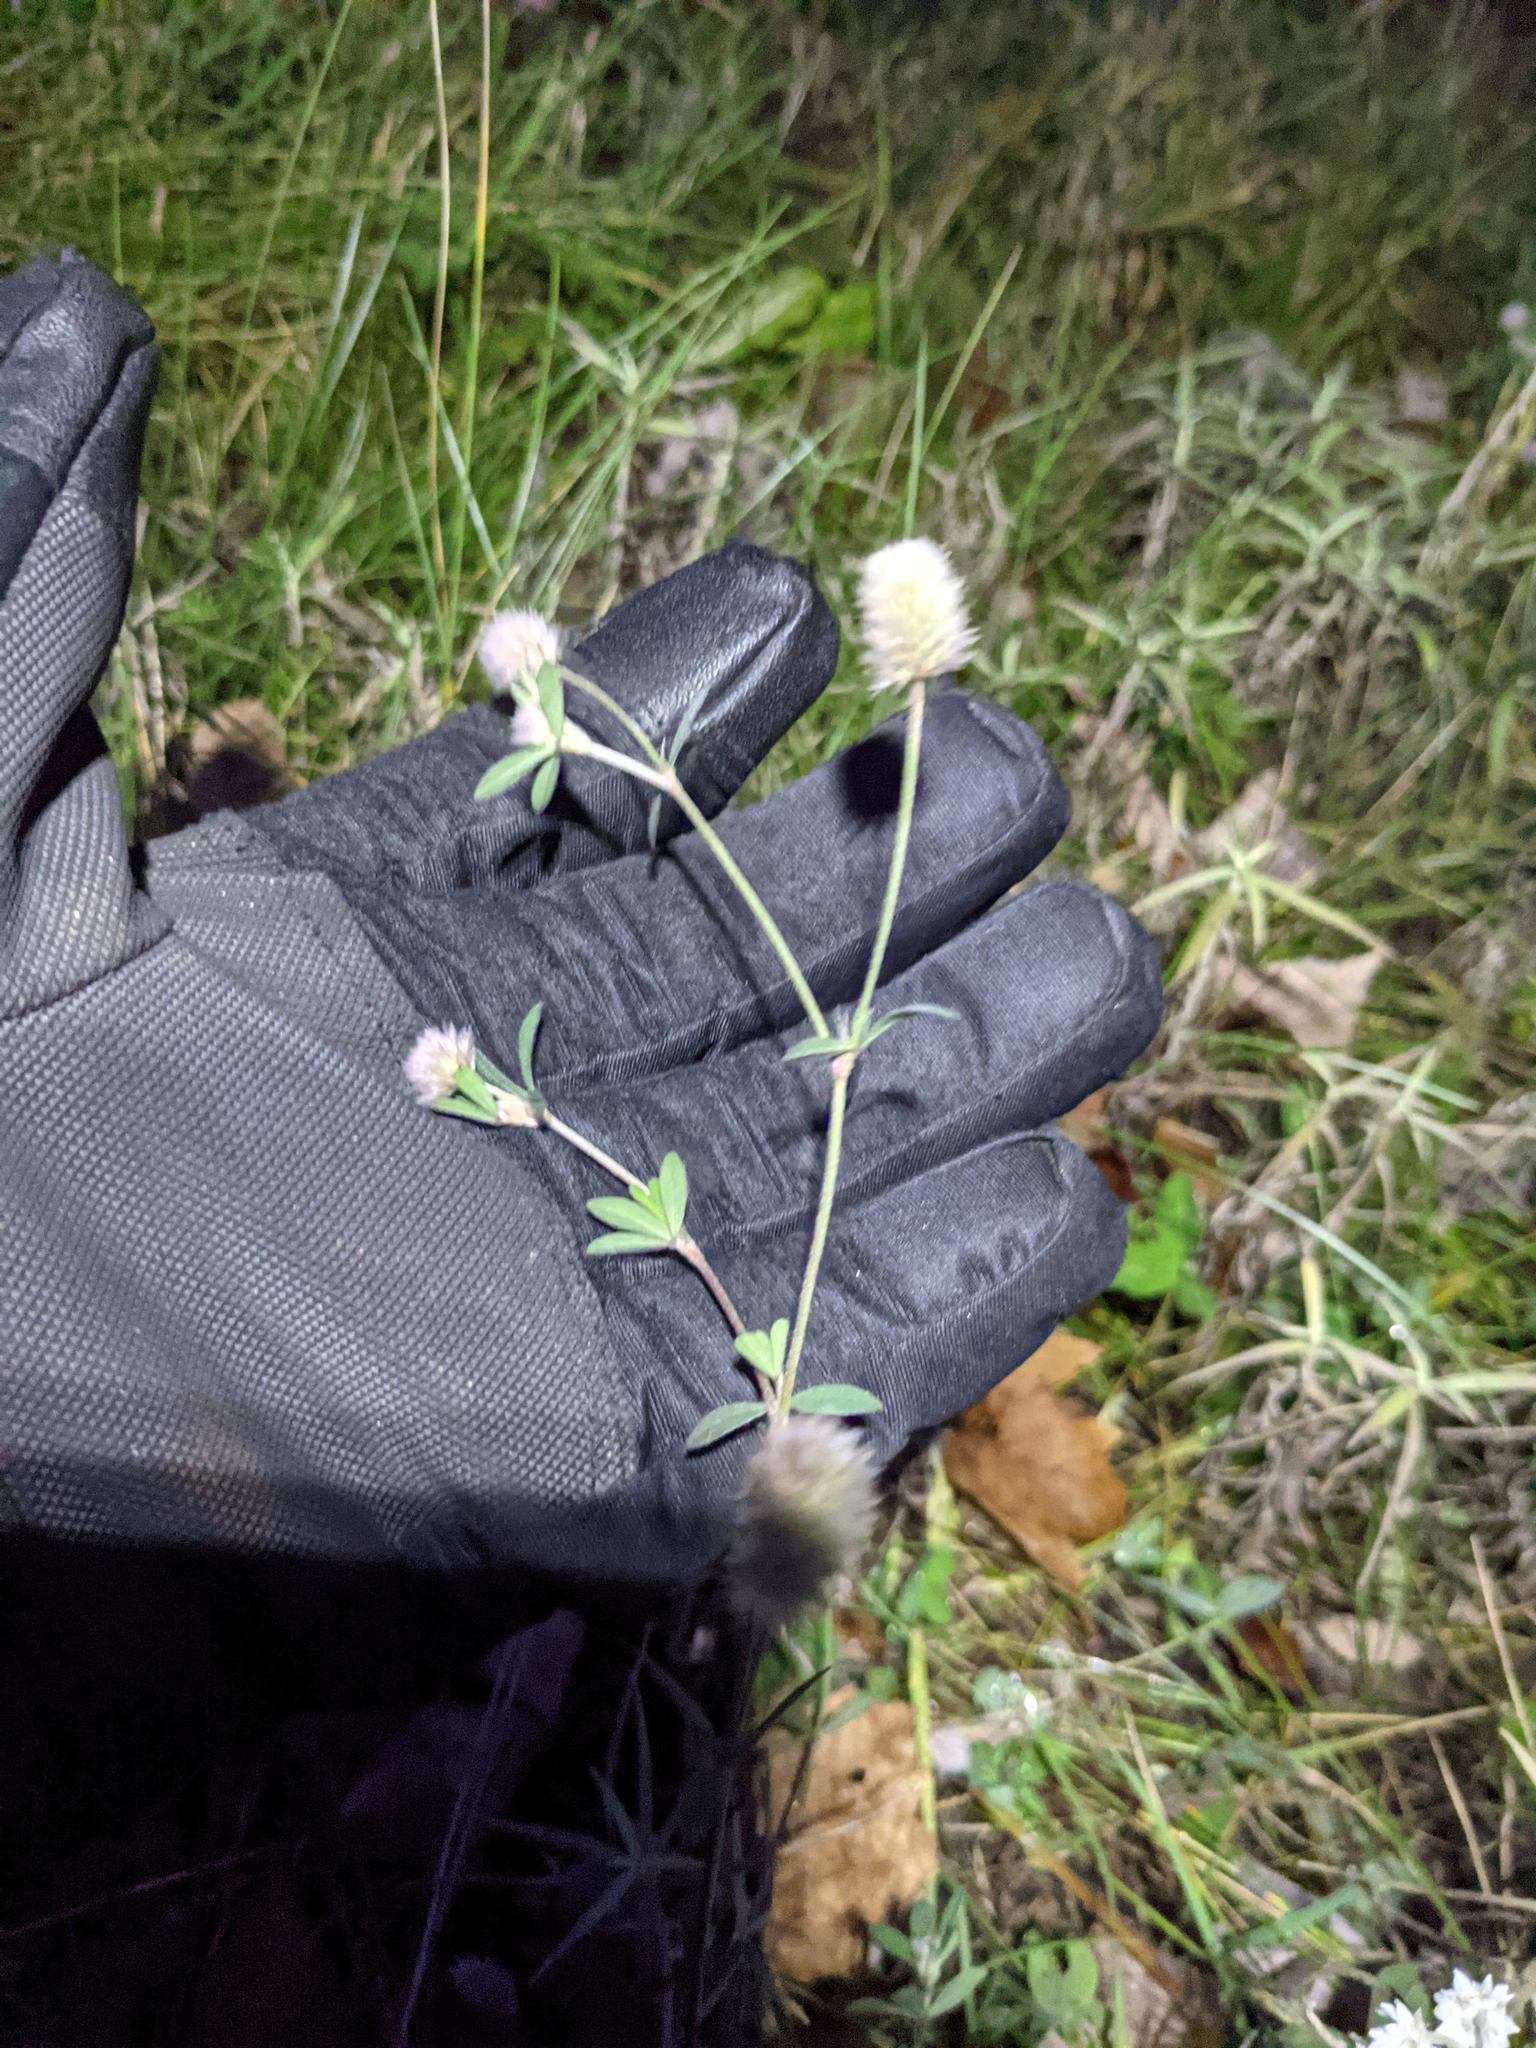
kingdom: Plantae
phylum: Tracheophyta
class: Magnoliopsida
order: Fabales
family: Fabaceae
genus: Trifolium
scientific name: Trifolium arvense
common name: Hare's-foot clover
